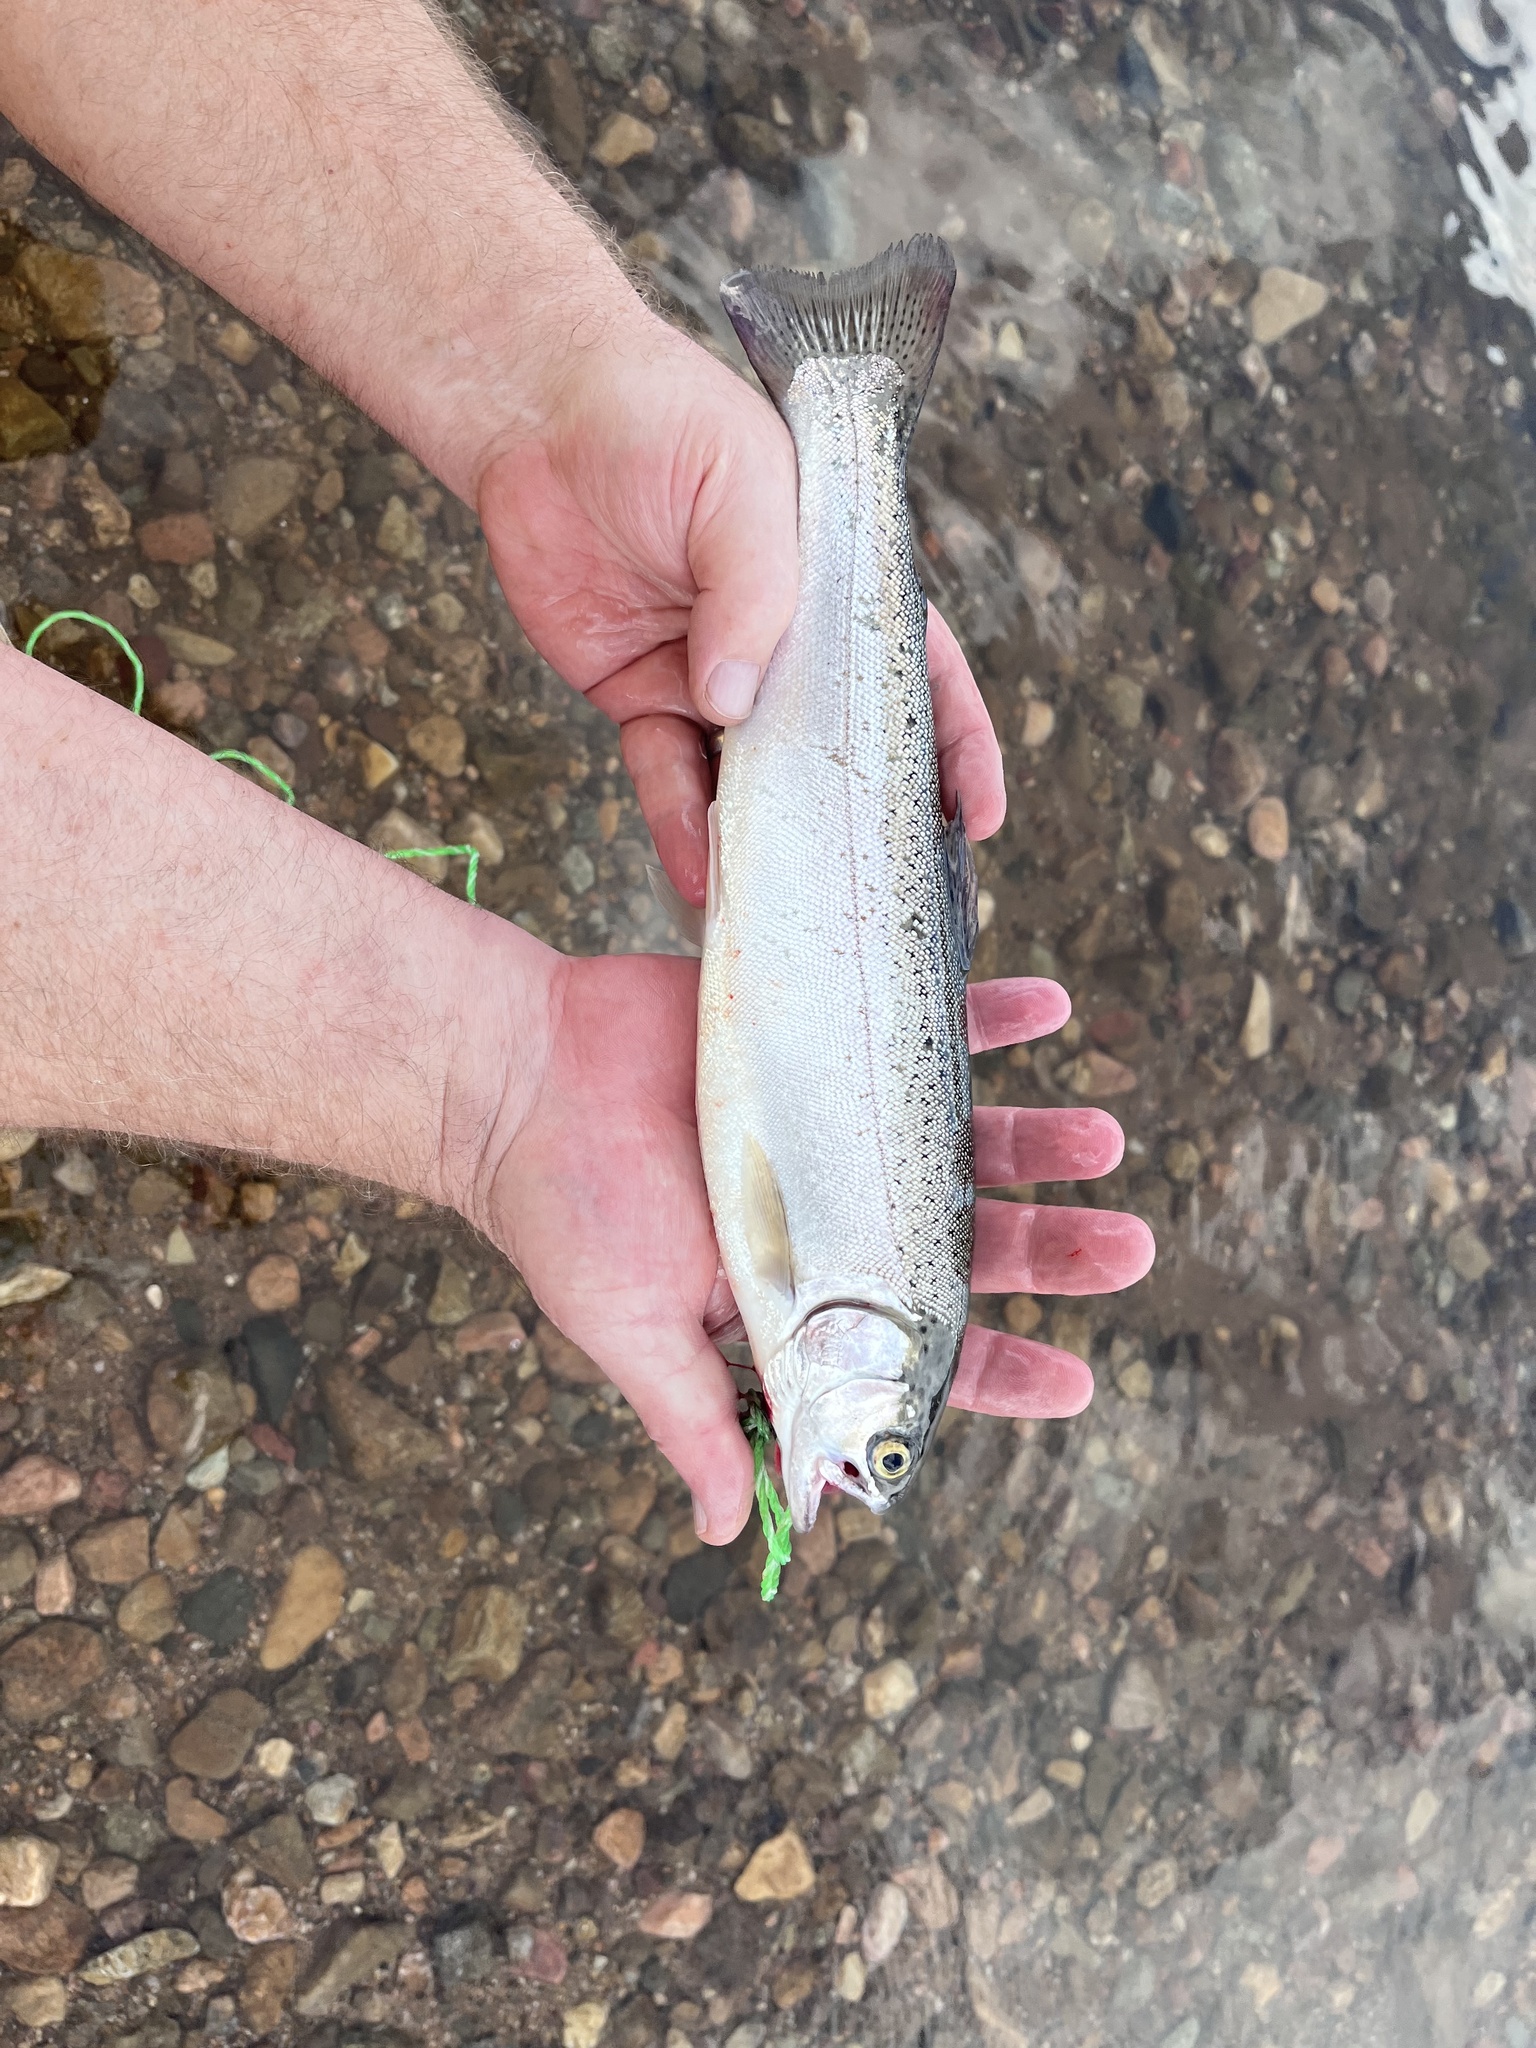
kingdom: Animalia
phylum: Chordata
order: Salmoniformes
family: Salmonidae
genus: Oncorhynchus
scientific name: Oncorhynchus mykiss
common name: Rainbow trout
